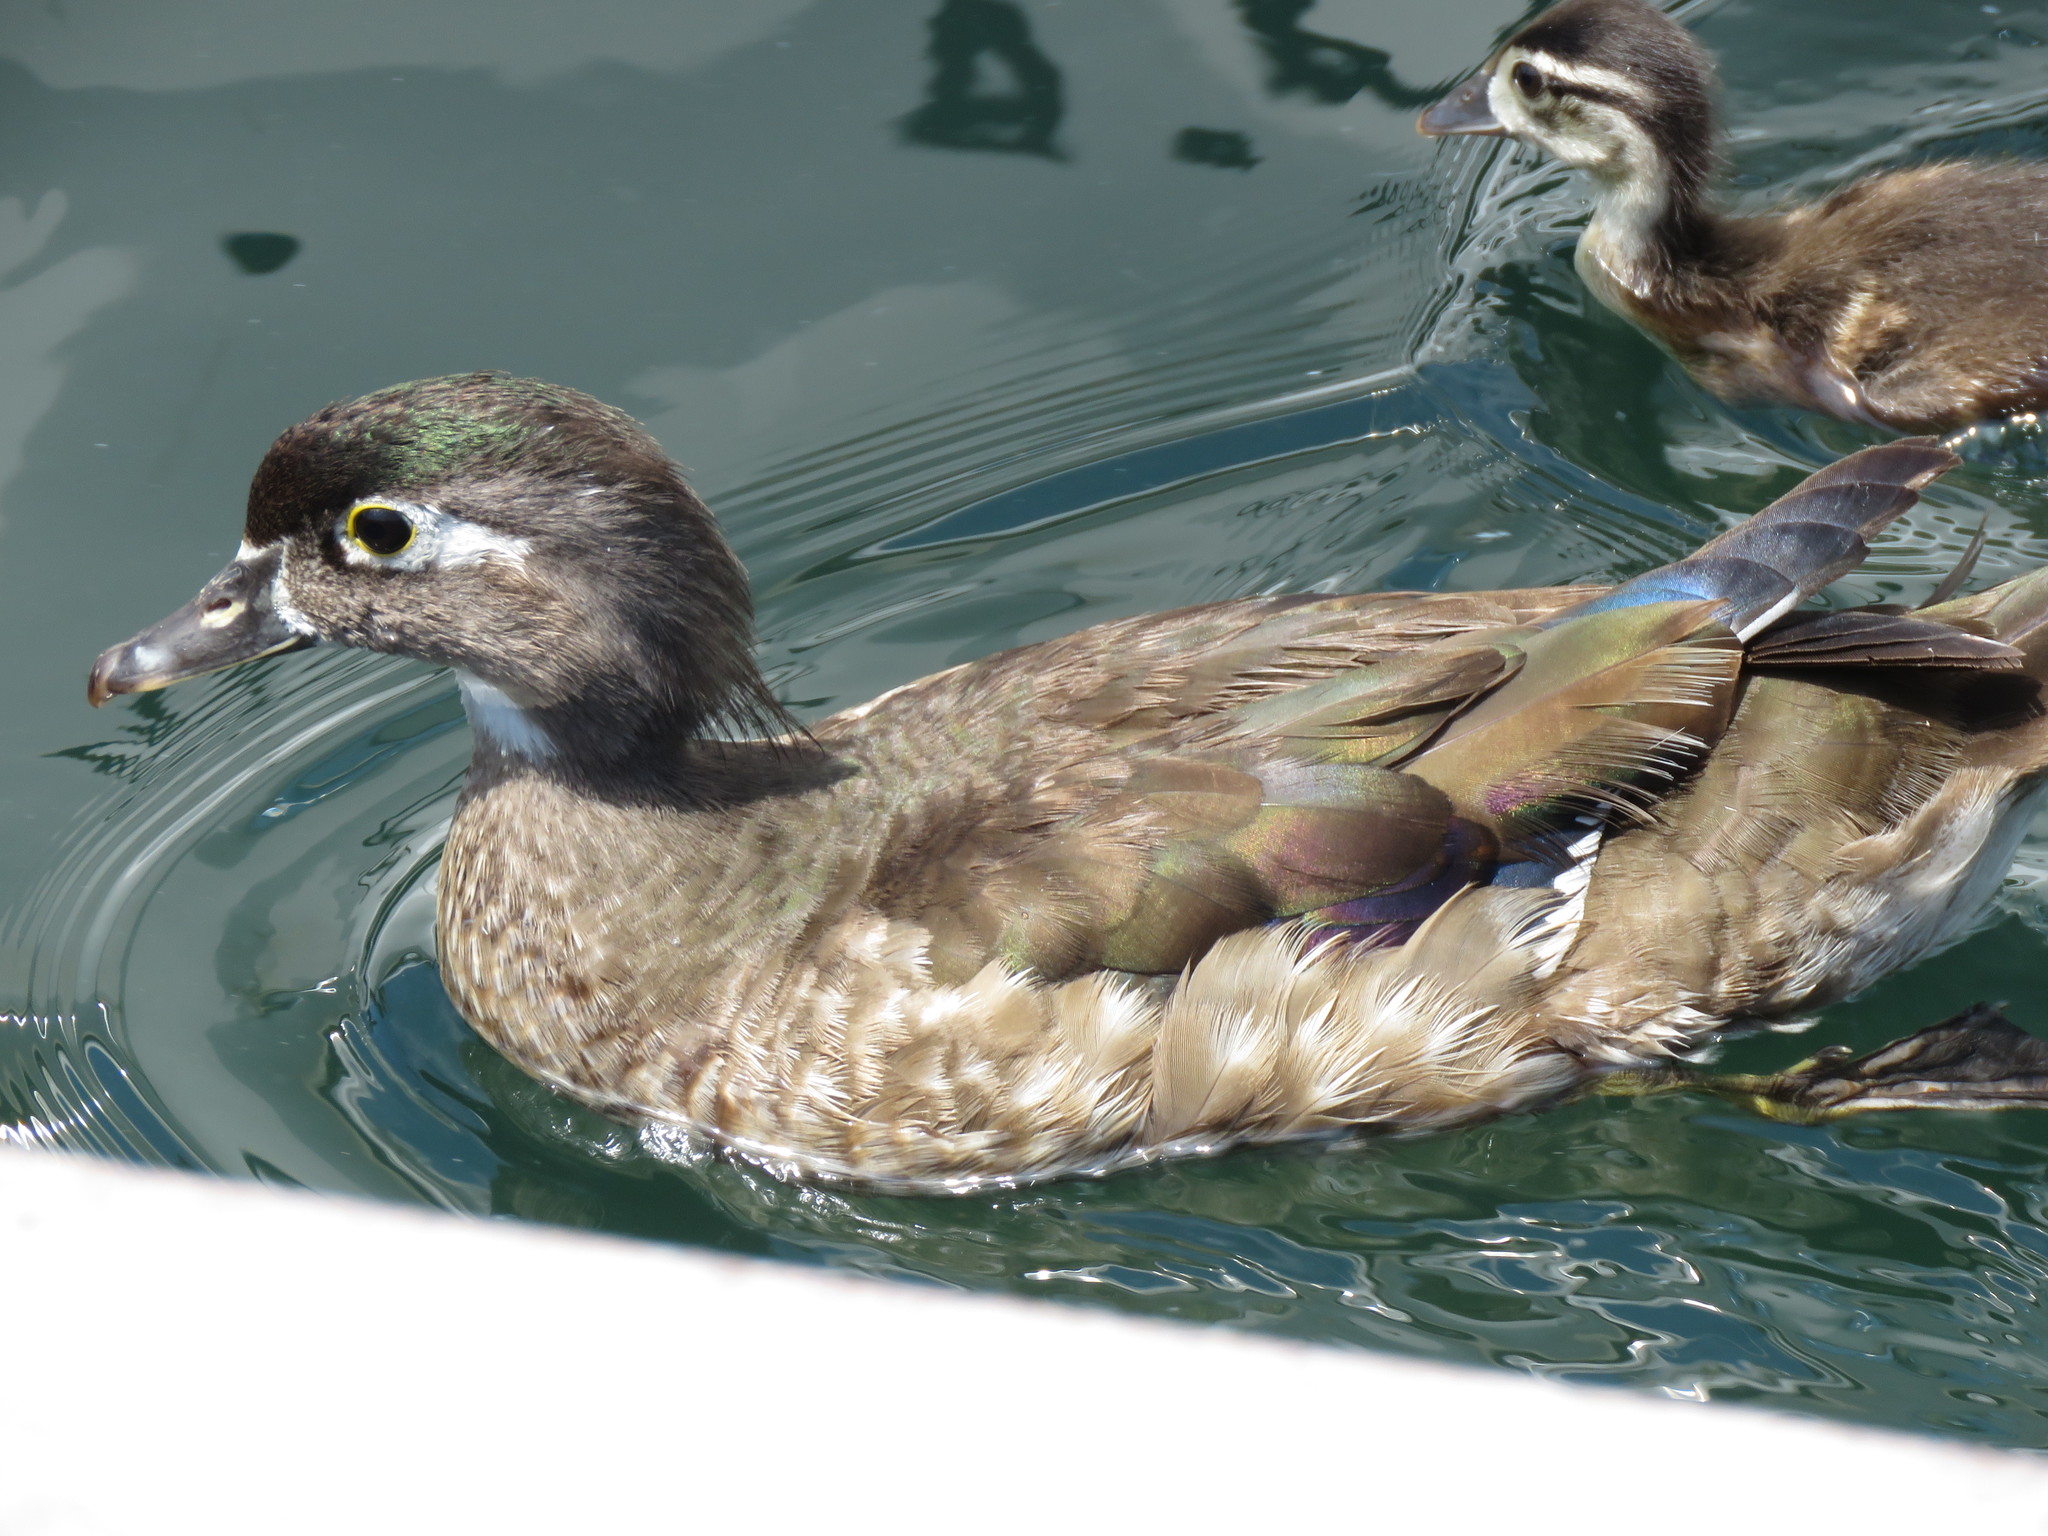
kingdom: Animalia
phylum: Chordata
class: Aves
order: Anseriformes
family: Anatidae
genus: Aix
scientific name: Aix sponsa
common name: Wood duck
